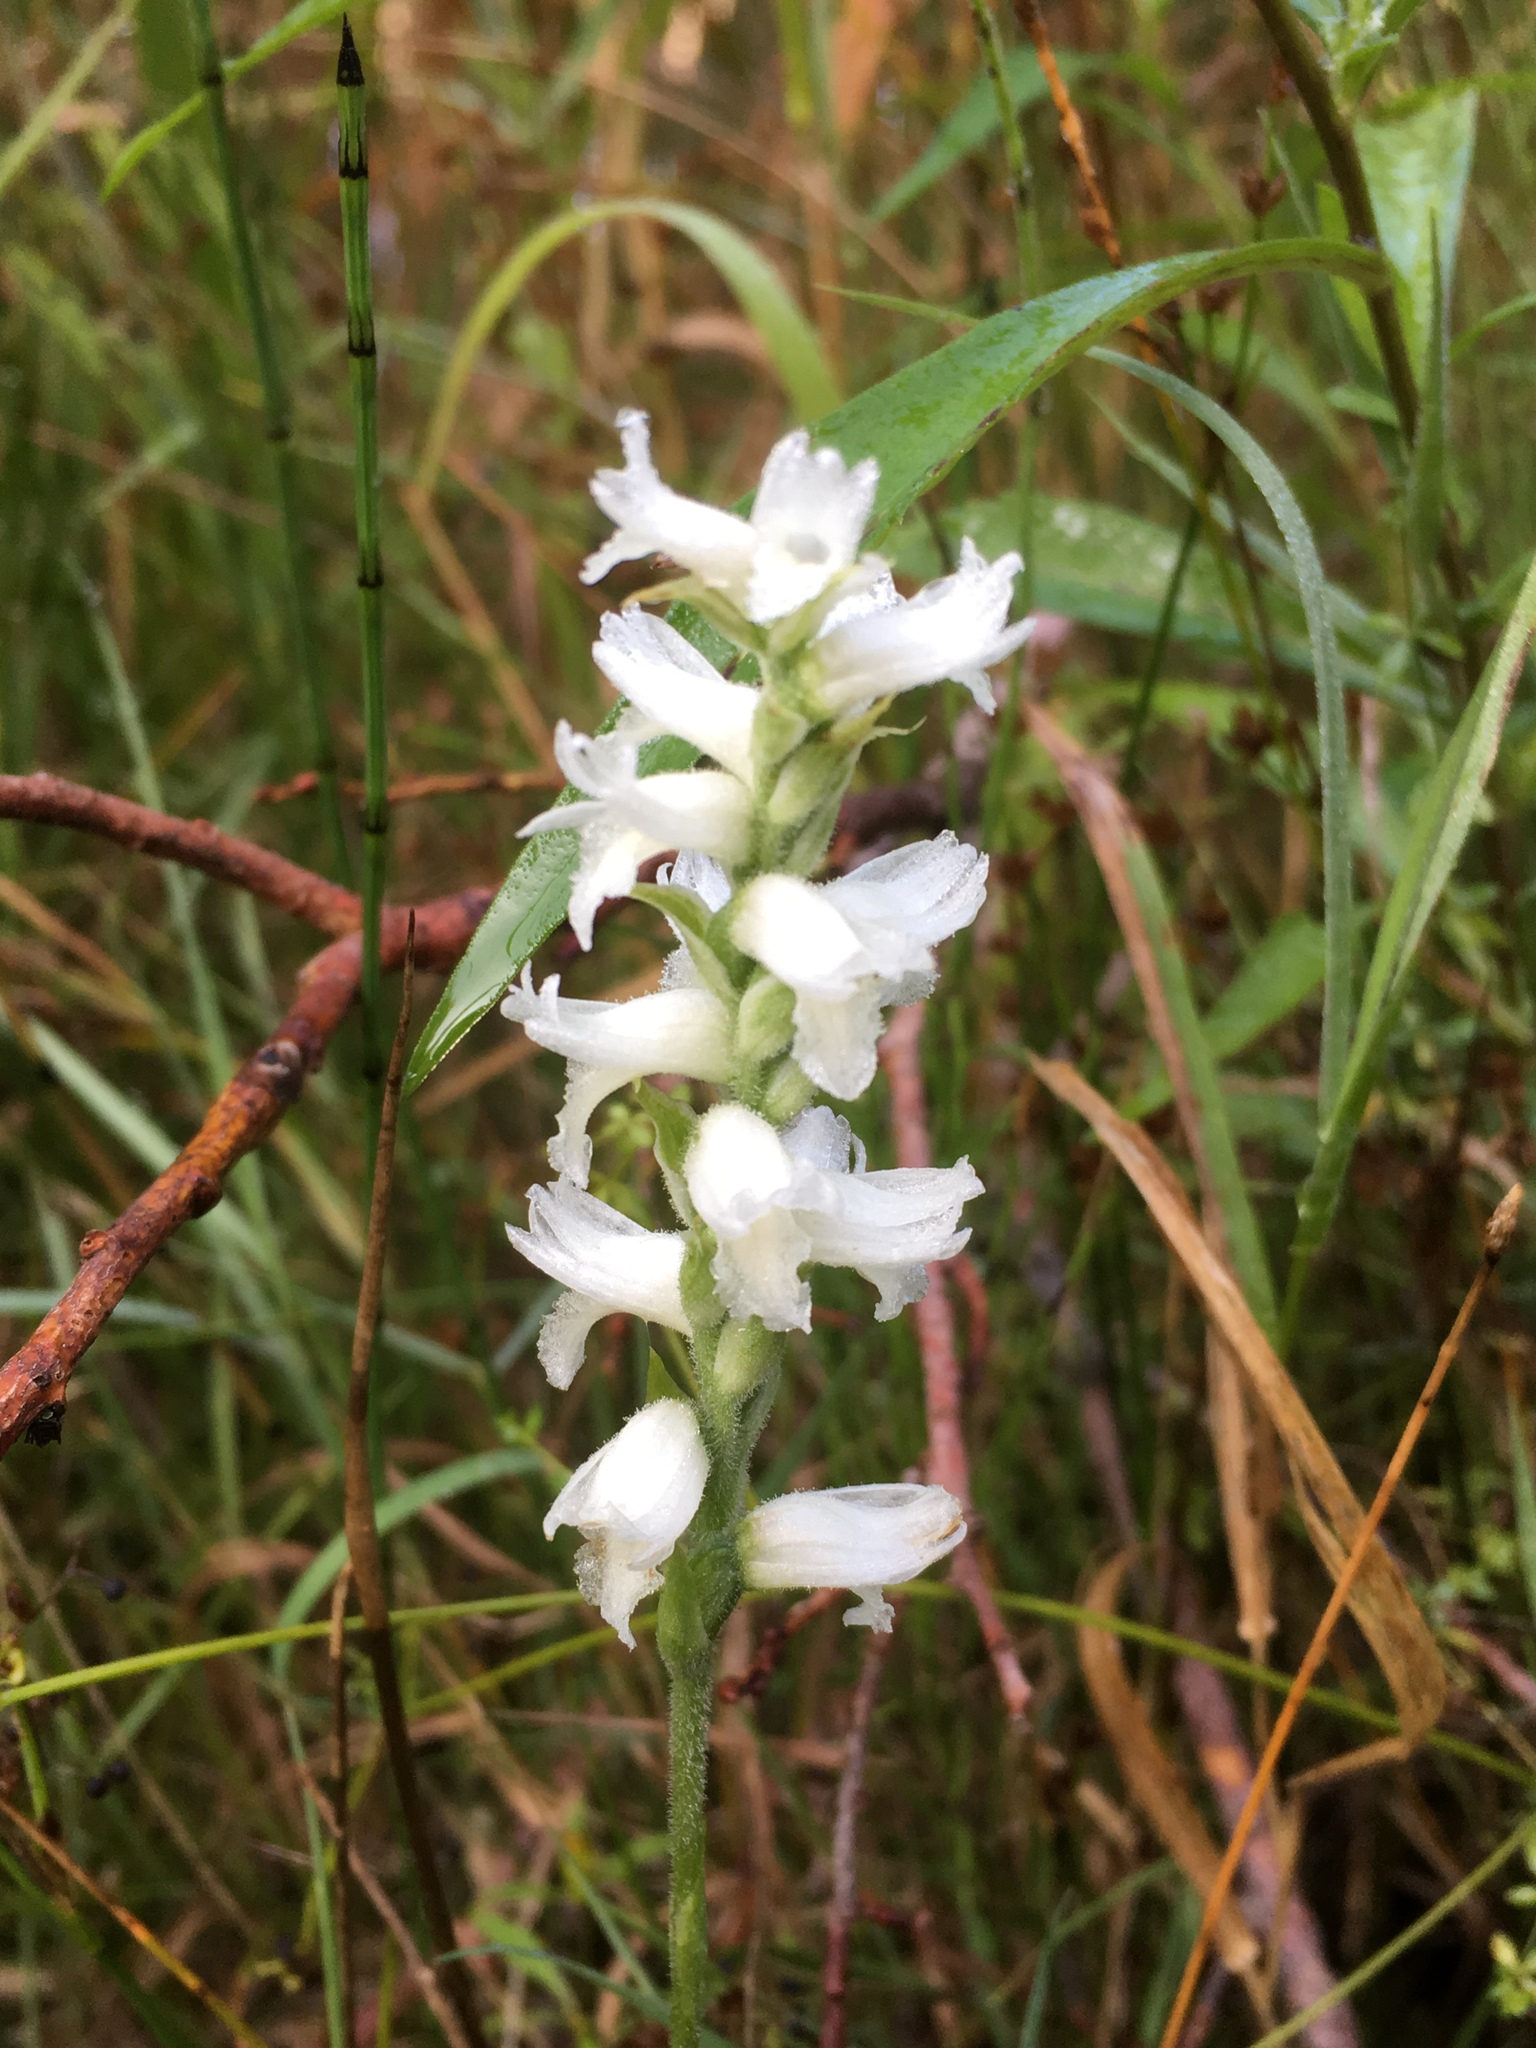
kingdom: Plantae
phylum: Tracheophyta
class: Liliopsida
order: Asparagales
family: Orchidaceae
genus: Spiranthes
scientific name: Spiranthes incurva
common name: Sphinx ladies'-tresses
